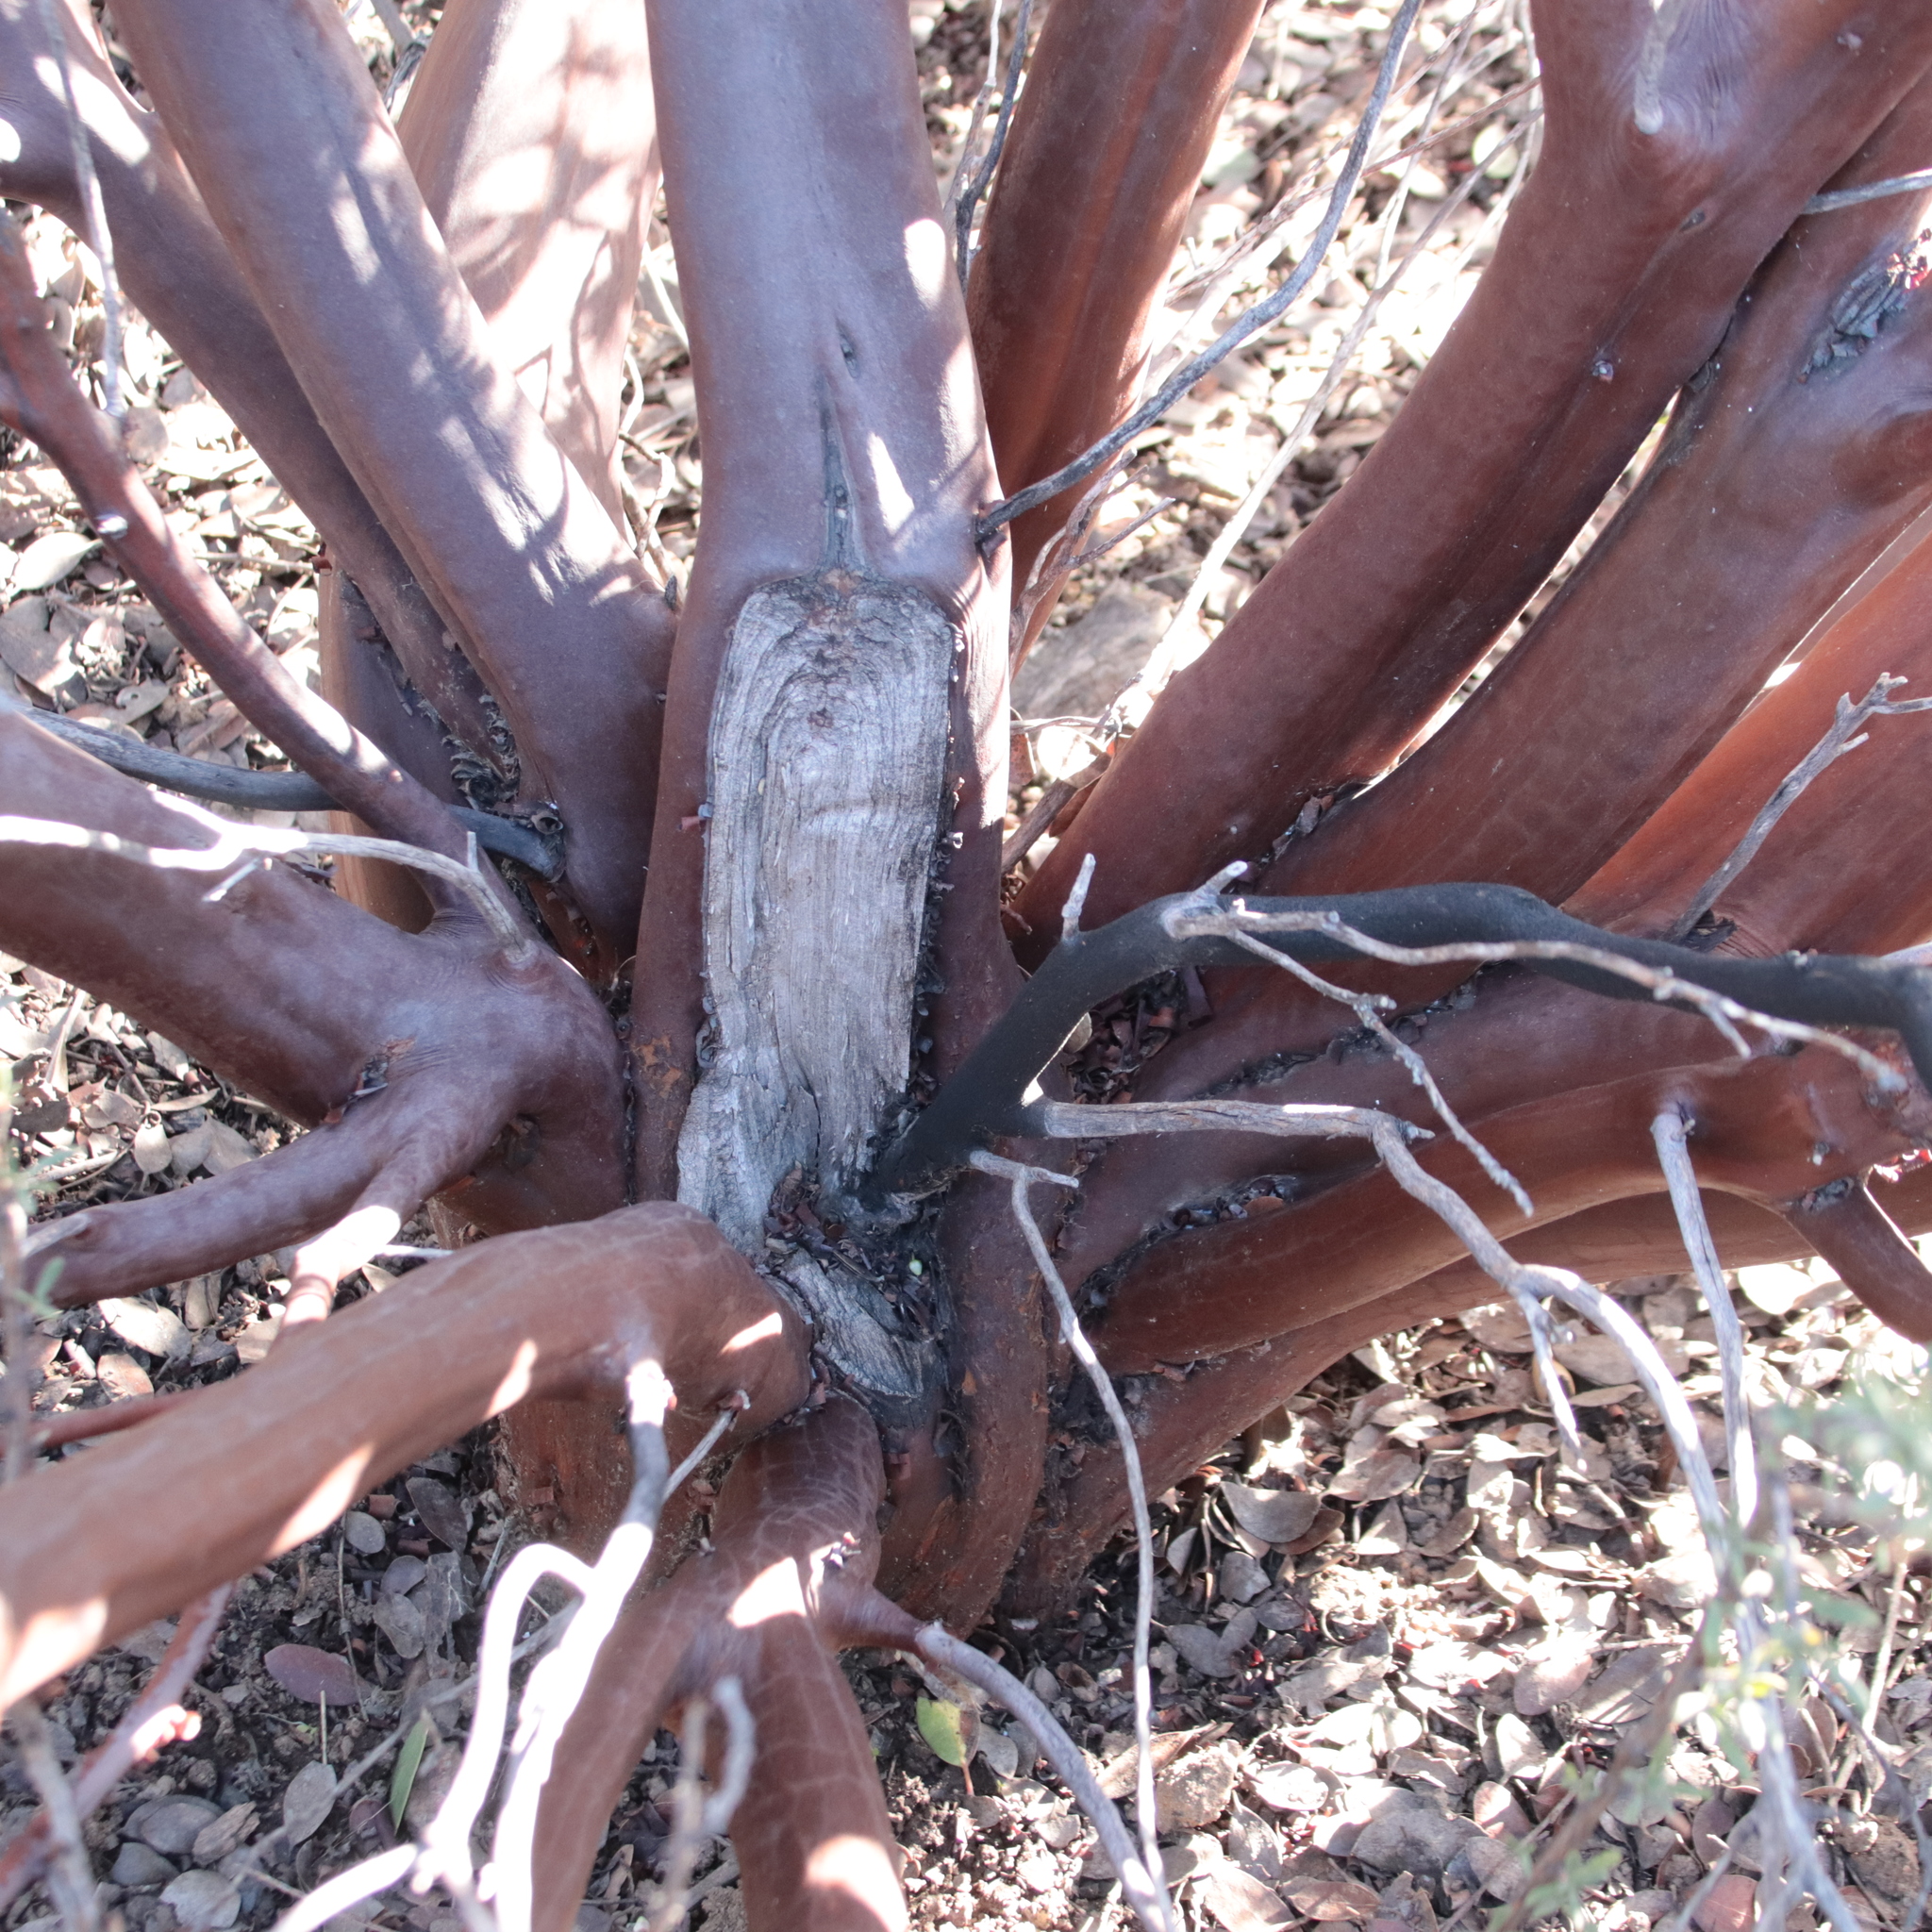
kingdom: Plantae
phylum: Tracheophyta
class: Magnoliopsida
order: Ericales
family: Ericaceae
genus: Arctostaphylos
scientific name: Arctostaphylos pungens
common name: Mexican manzanita
